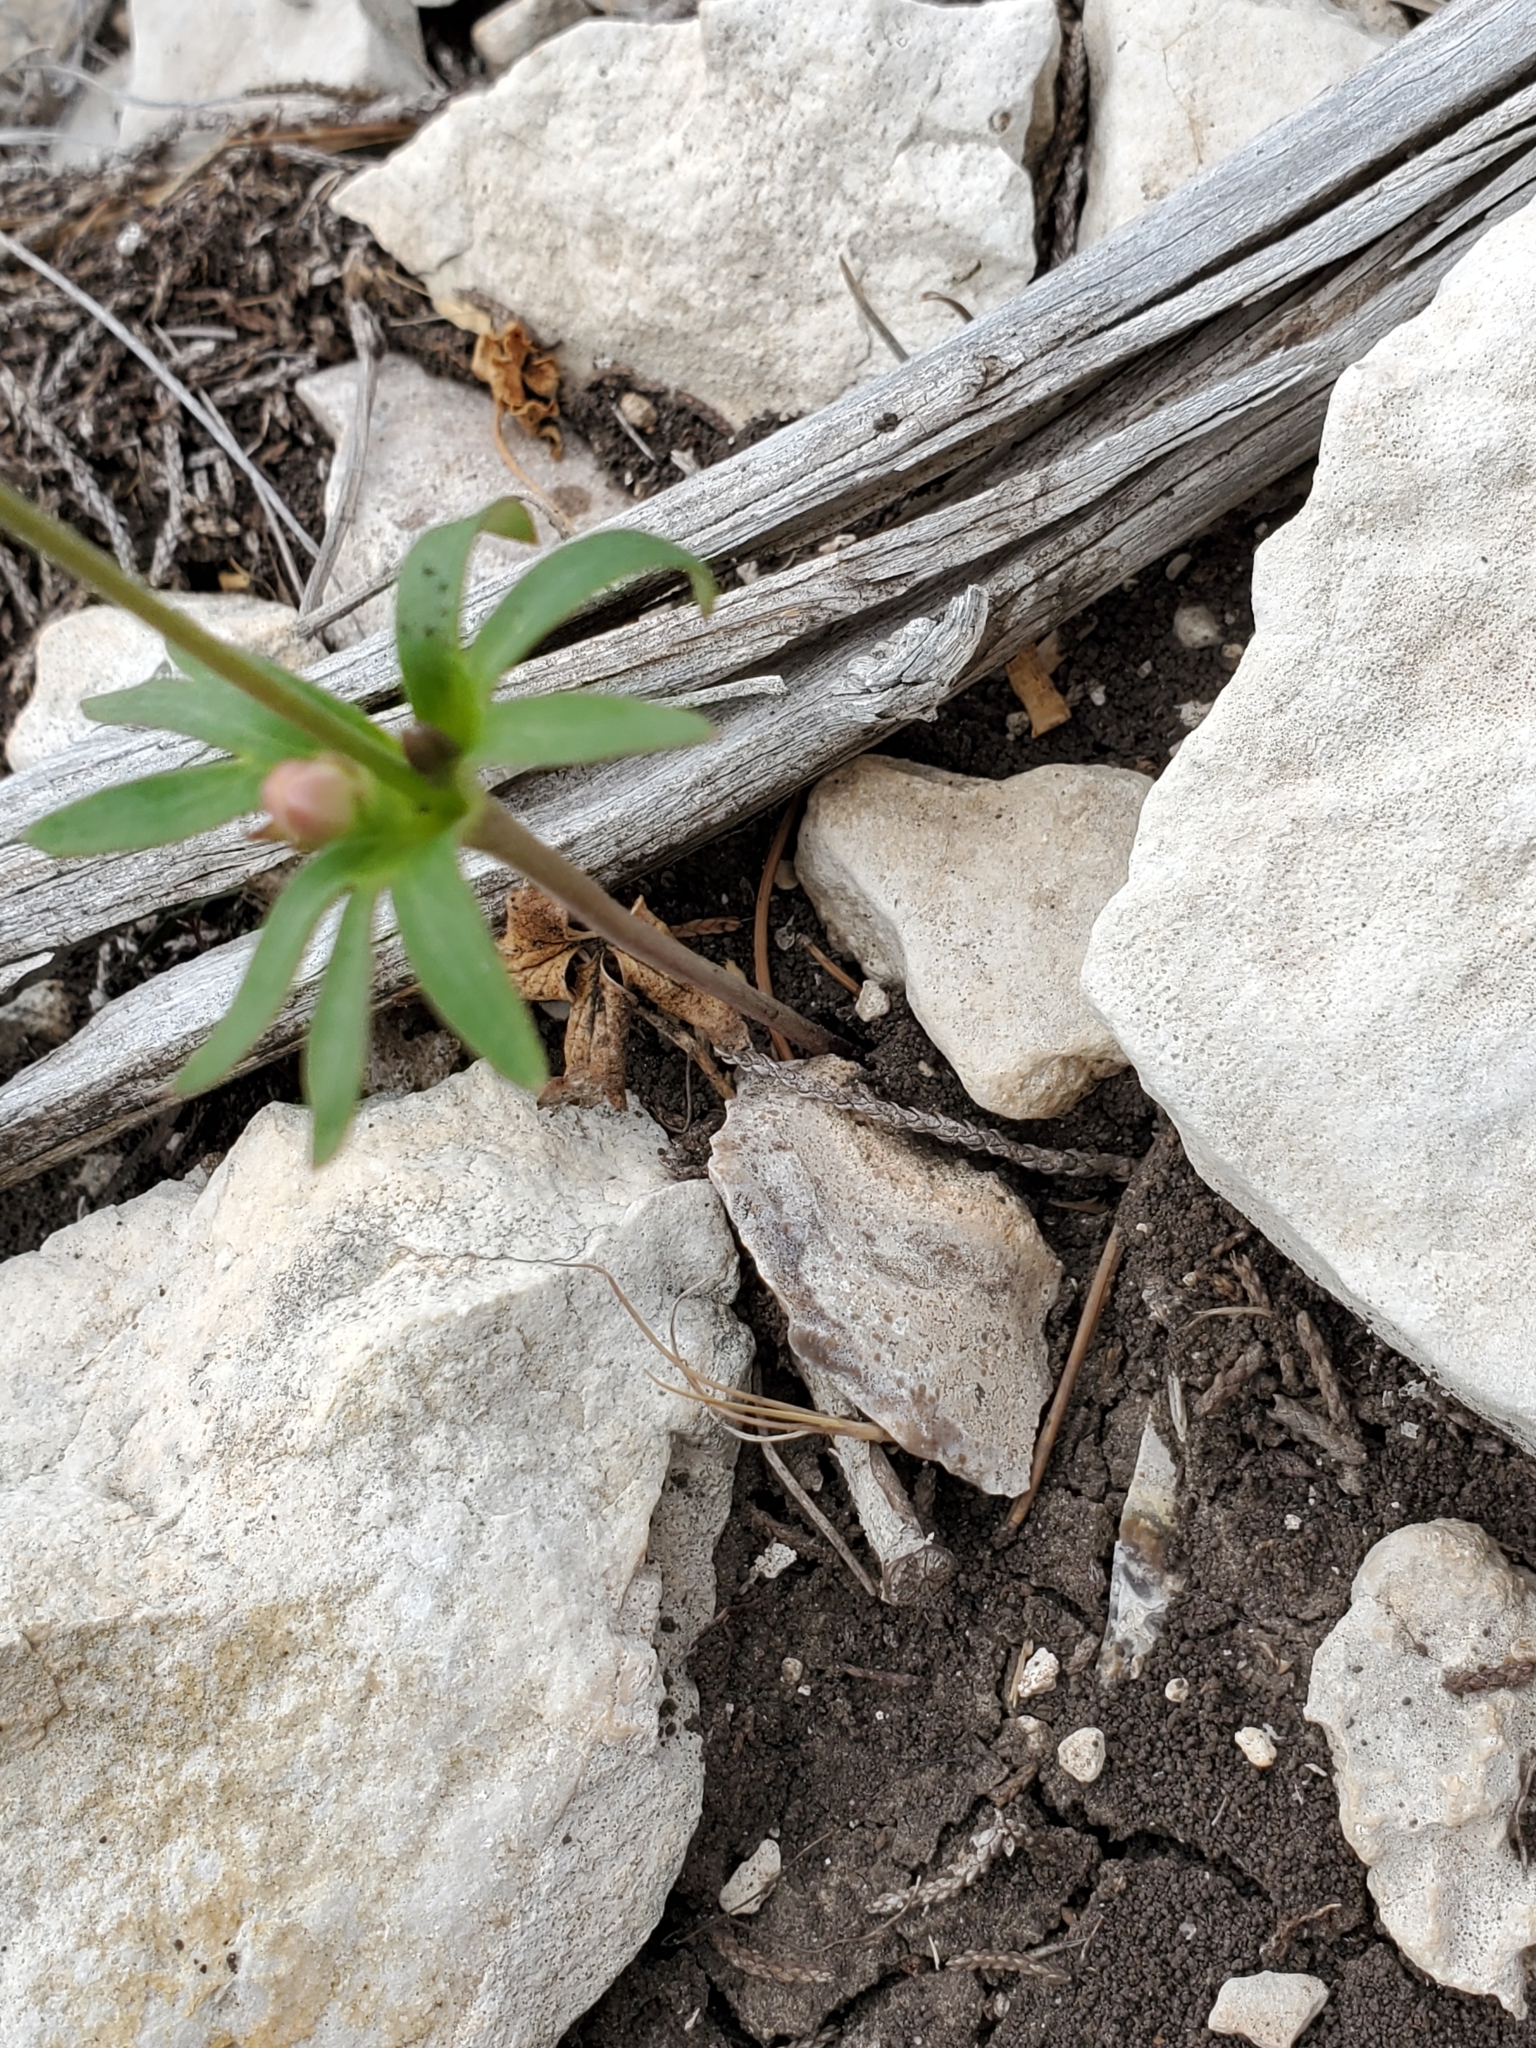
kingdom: Plantae
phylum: Tracheophyta
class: Magnoliopsida
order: Ranunculales
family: Ranunculaceae
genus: Anemone
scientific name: Anemone edwardsiana
